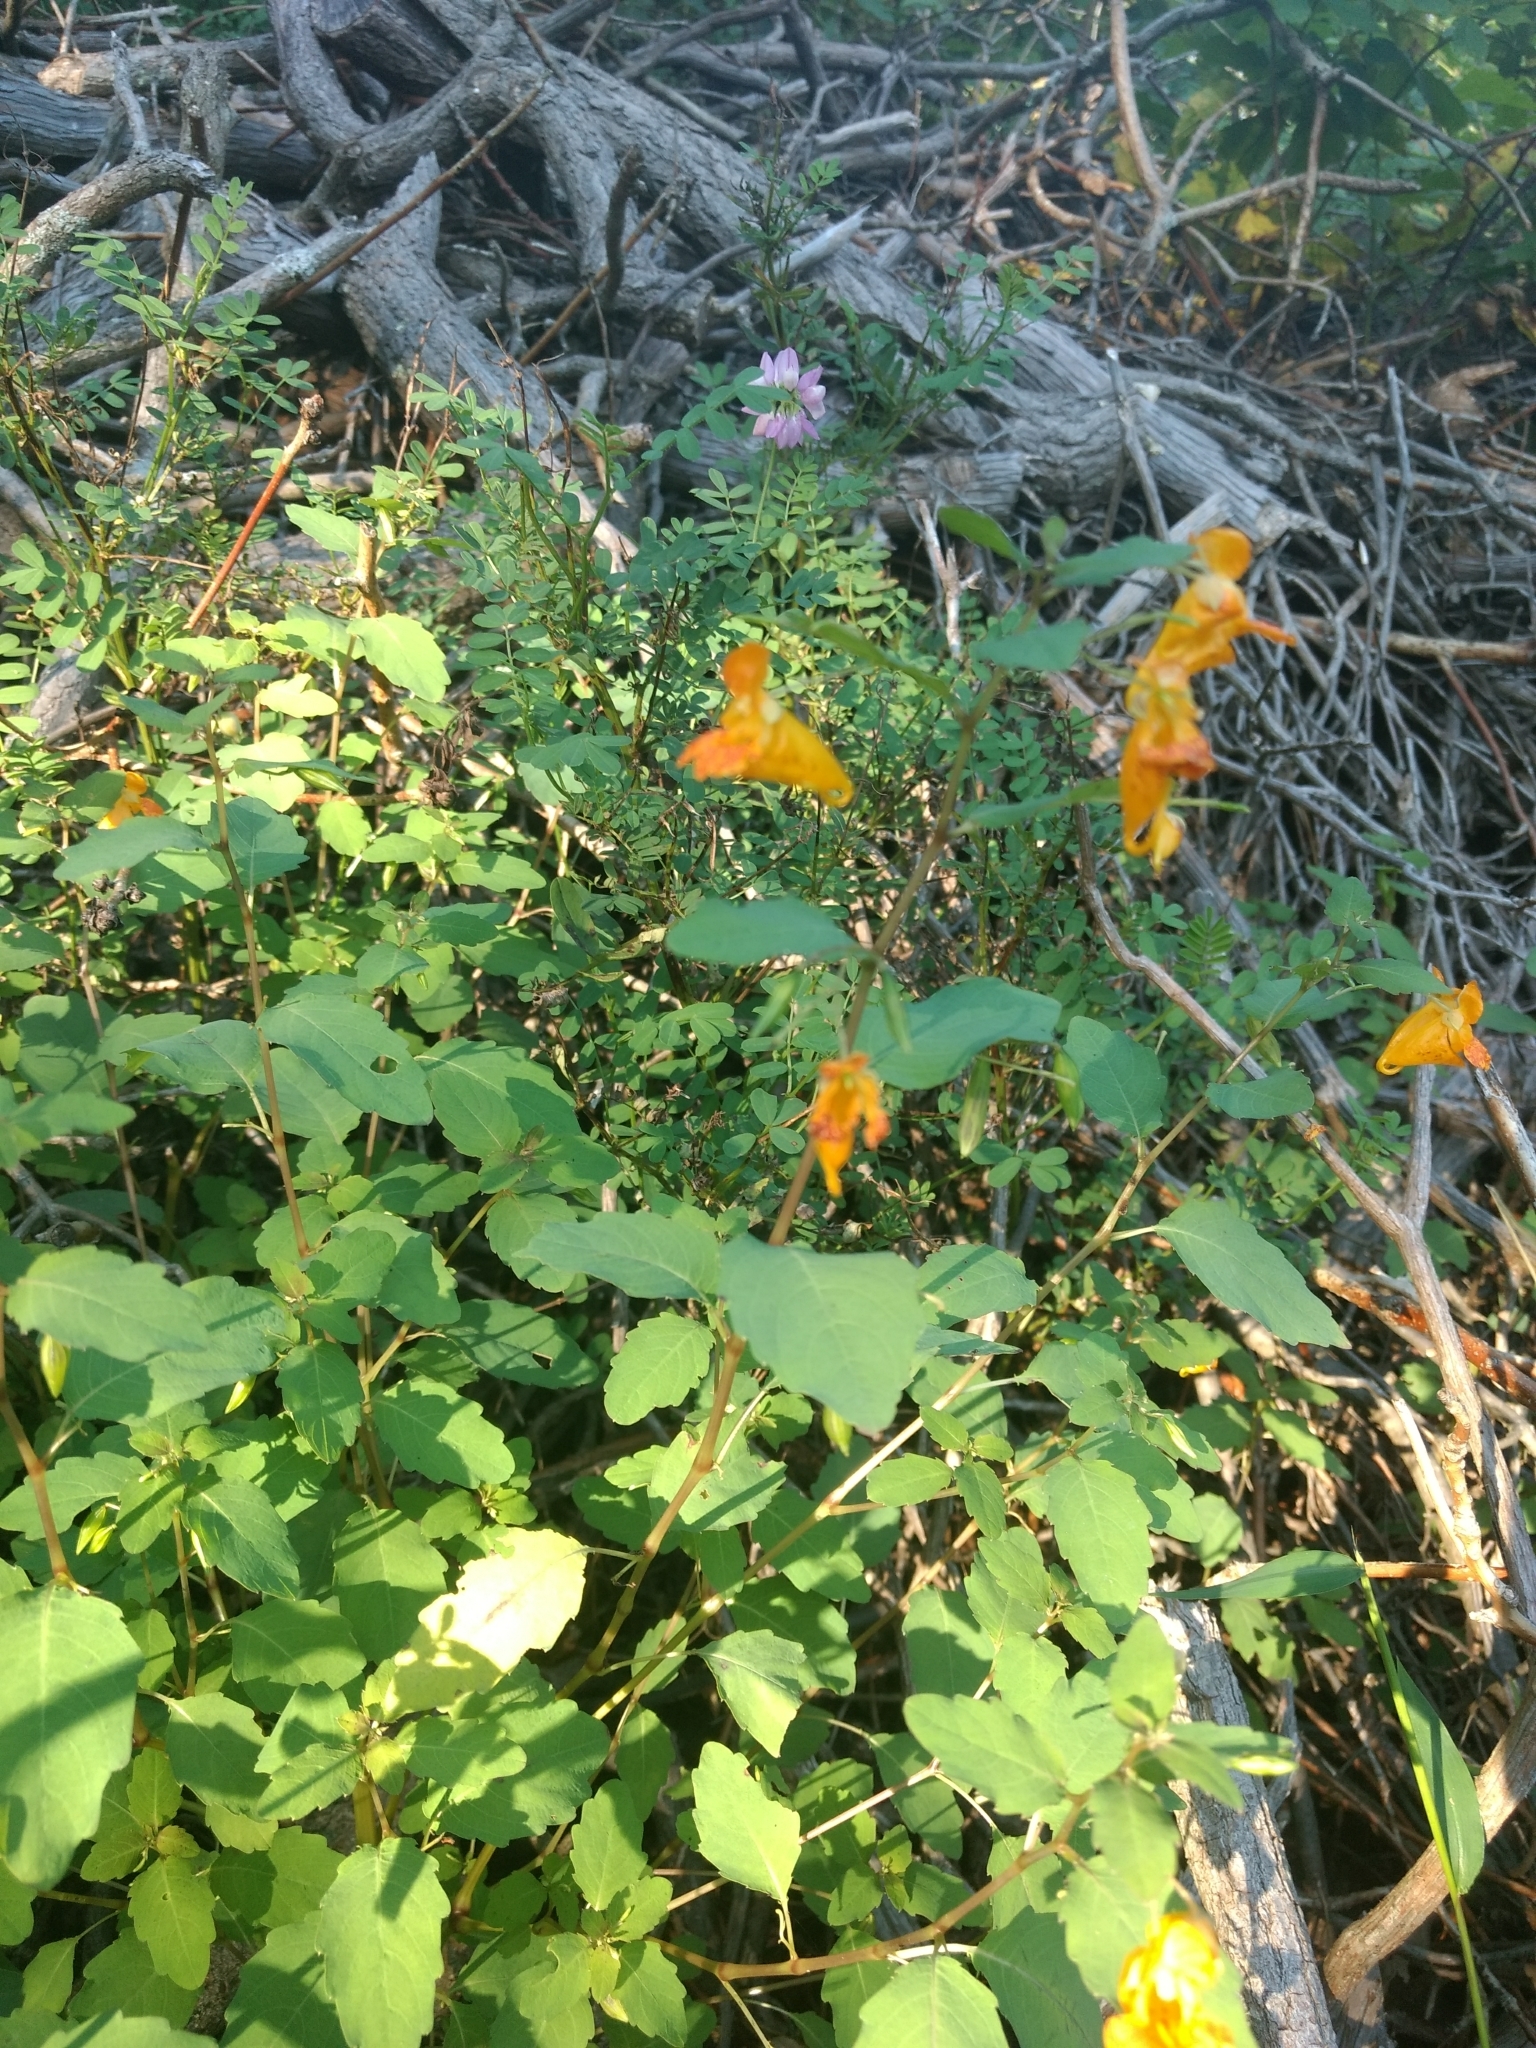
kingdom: Plantae
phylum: Tracheophyta
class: Magnoliopsida
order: Ericales
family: Balsaminaceae
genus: Impatiens
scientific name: Impatiens capensis
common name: Orange balsam
